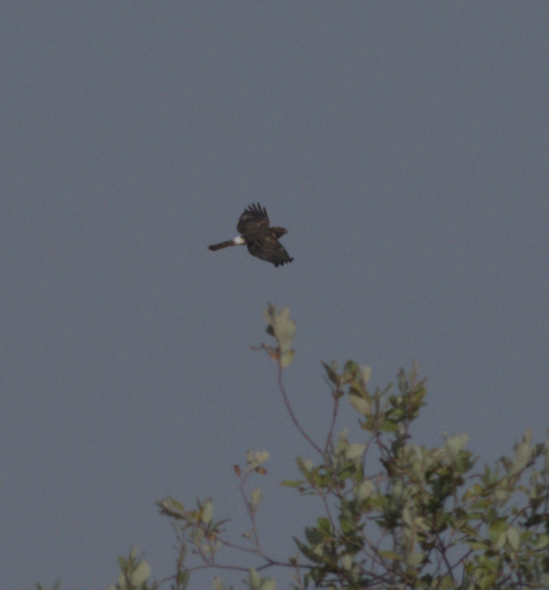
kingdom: Animalia
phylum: Chordata
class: Aves
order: Accipitriformes
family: Accipitridae
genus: Circus
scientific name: Circus cyaneus
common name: Hen harrier
